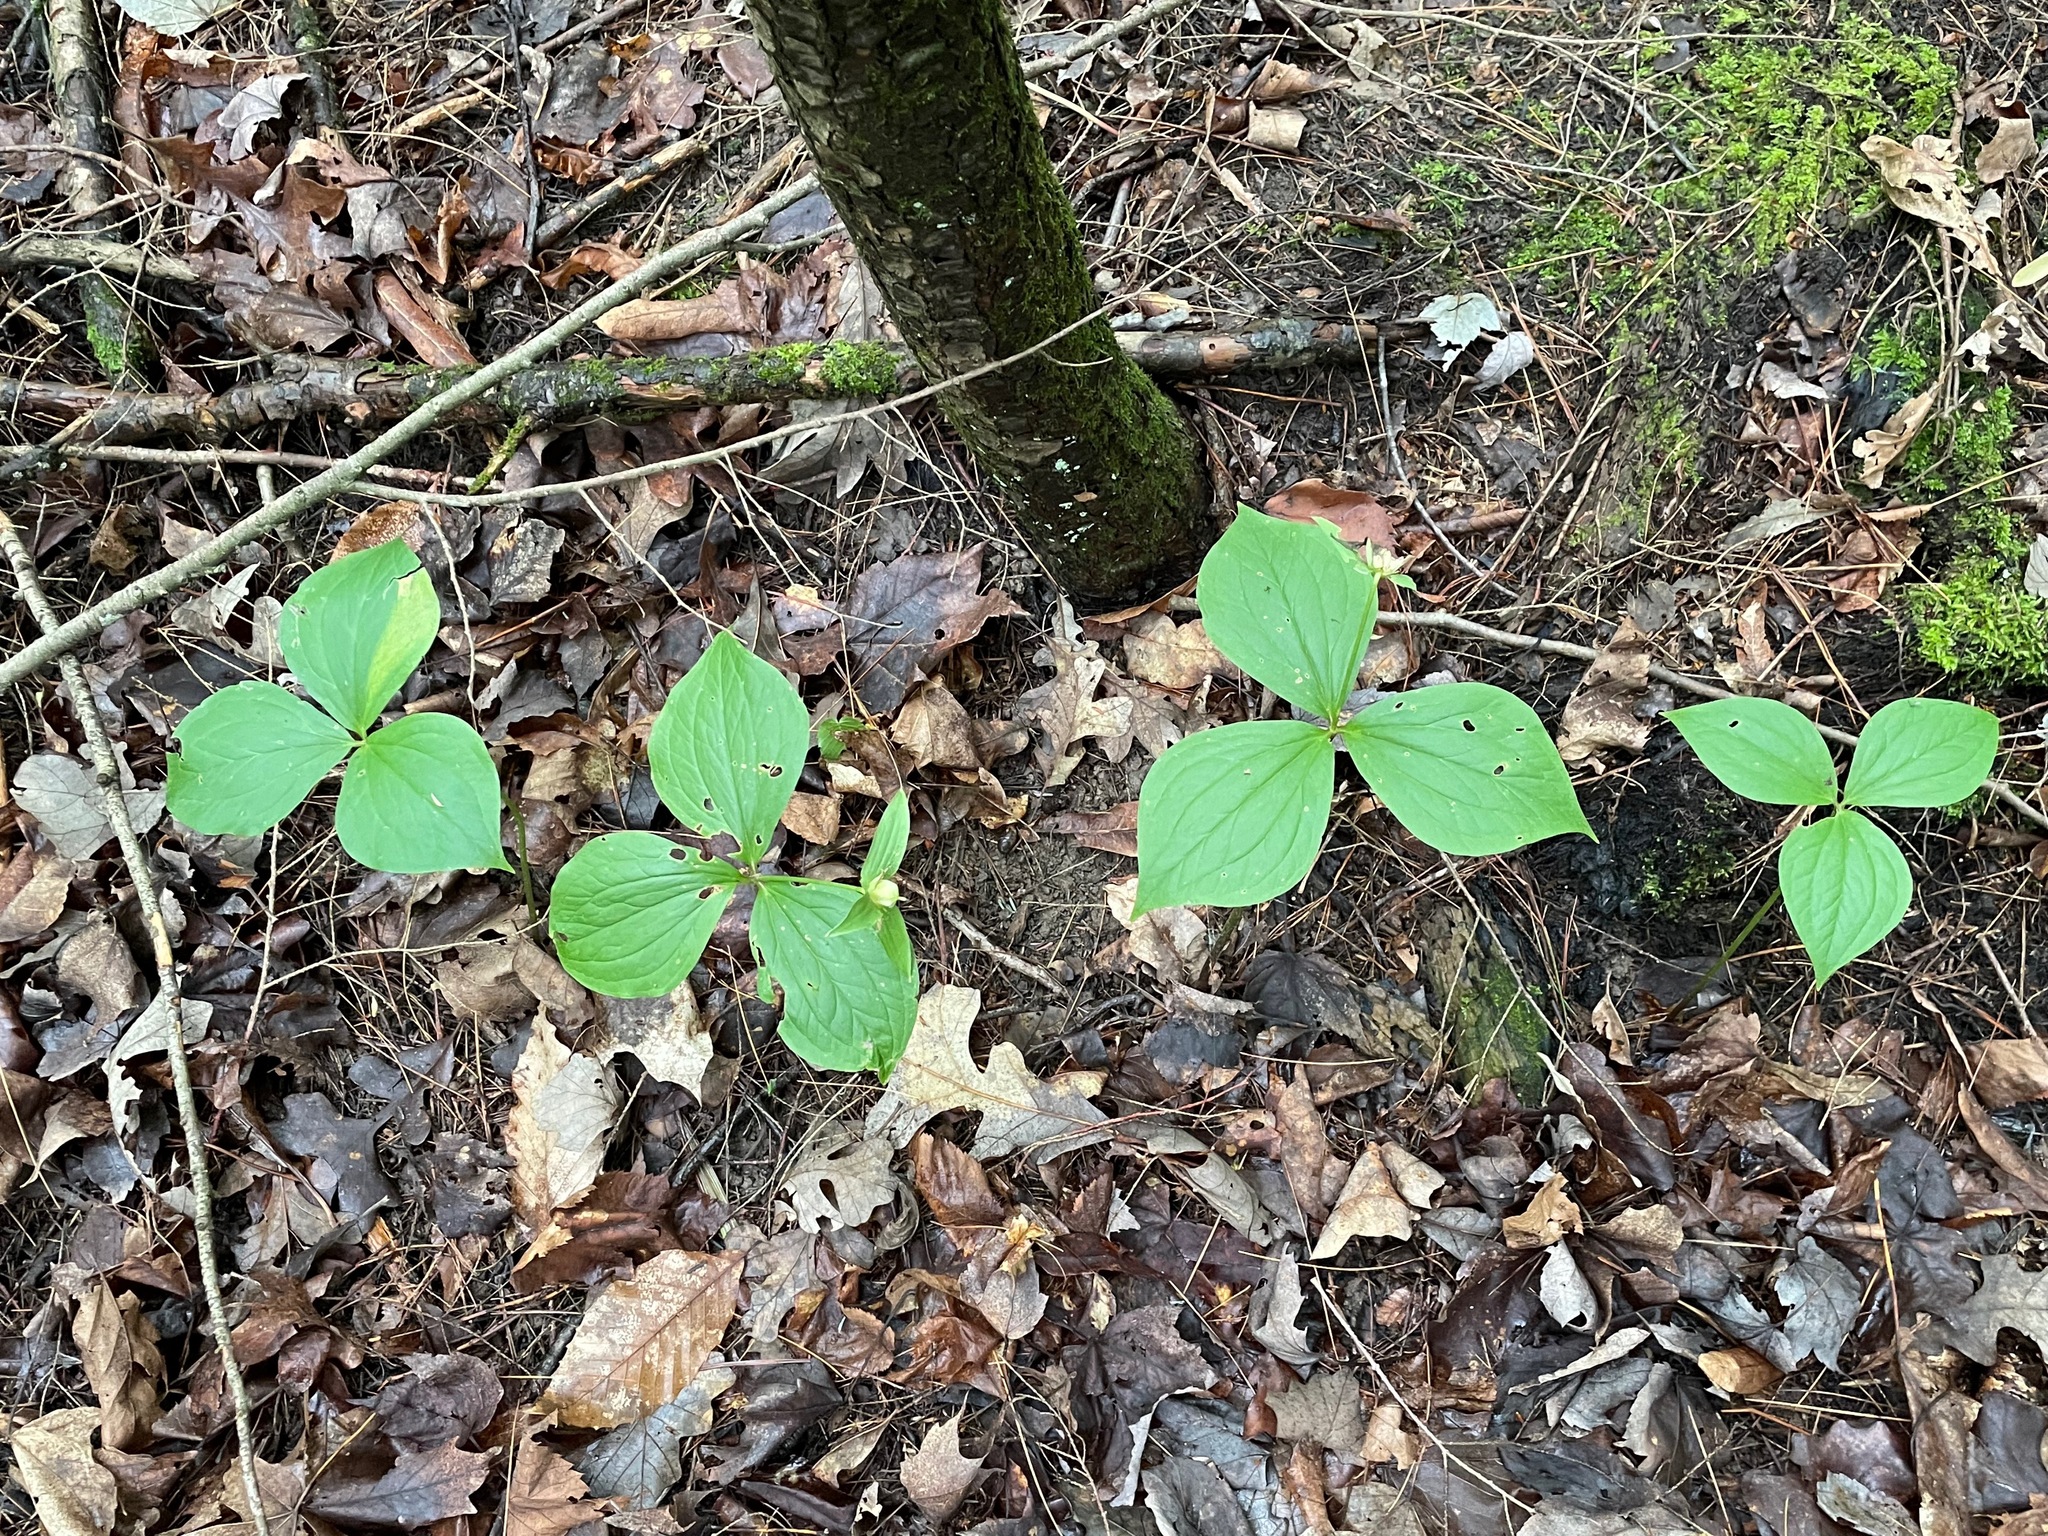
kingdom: Plantae
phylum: Tracheophyta
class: Liliopsida
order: Liliales
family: Melanthiaceae
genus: Trillium
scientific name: Trillium grandiflorum
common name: Great white trillium
